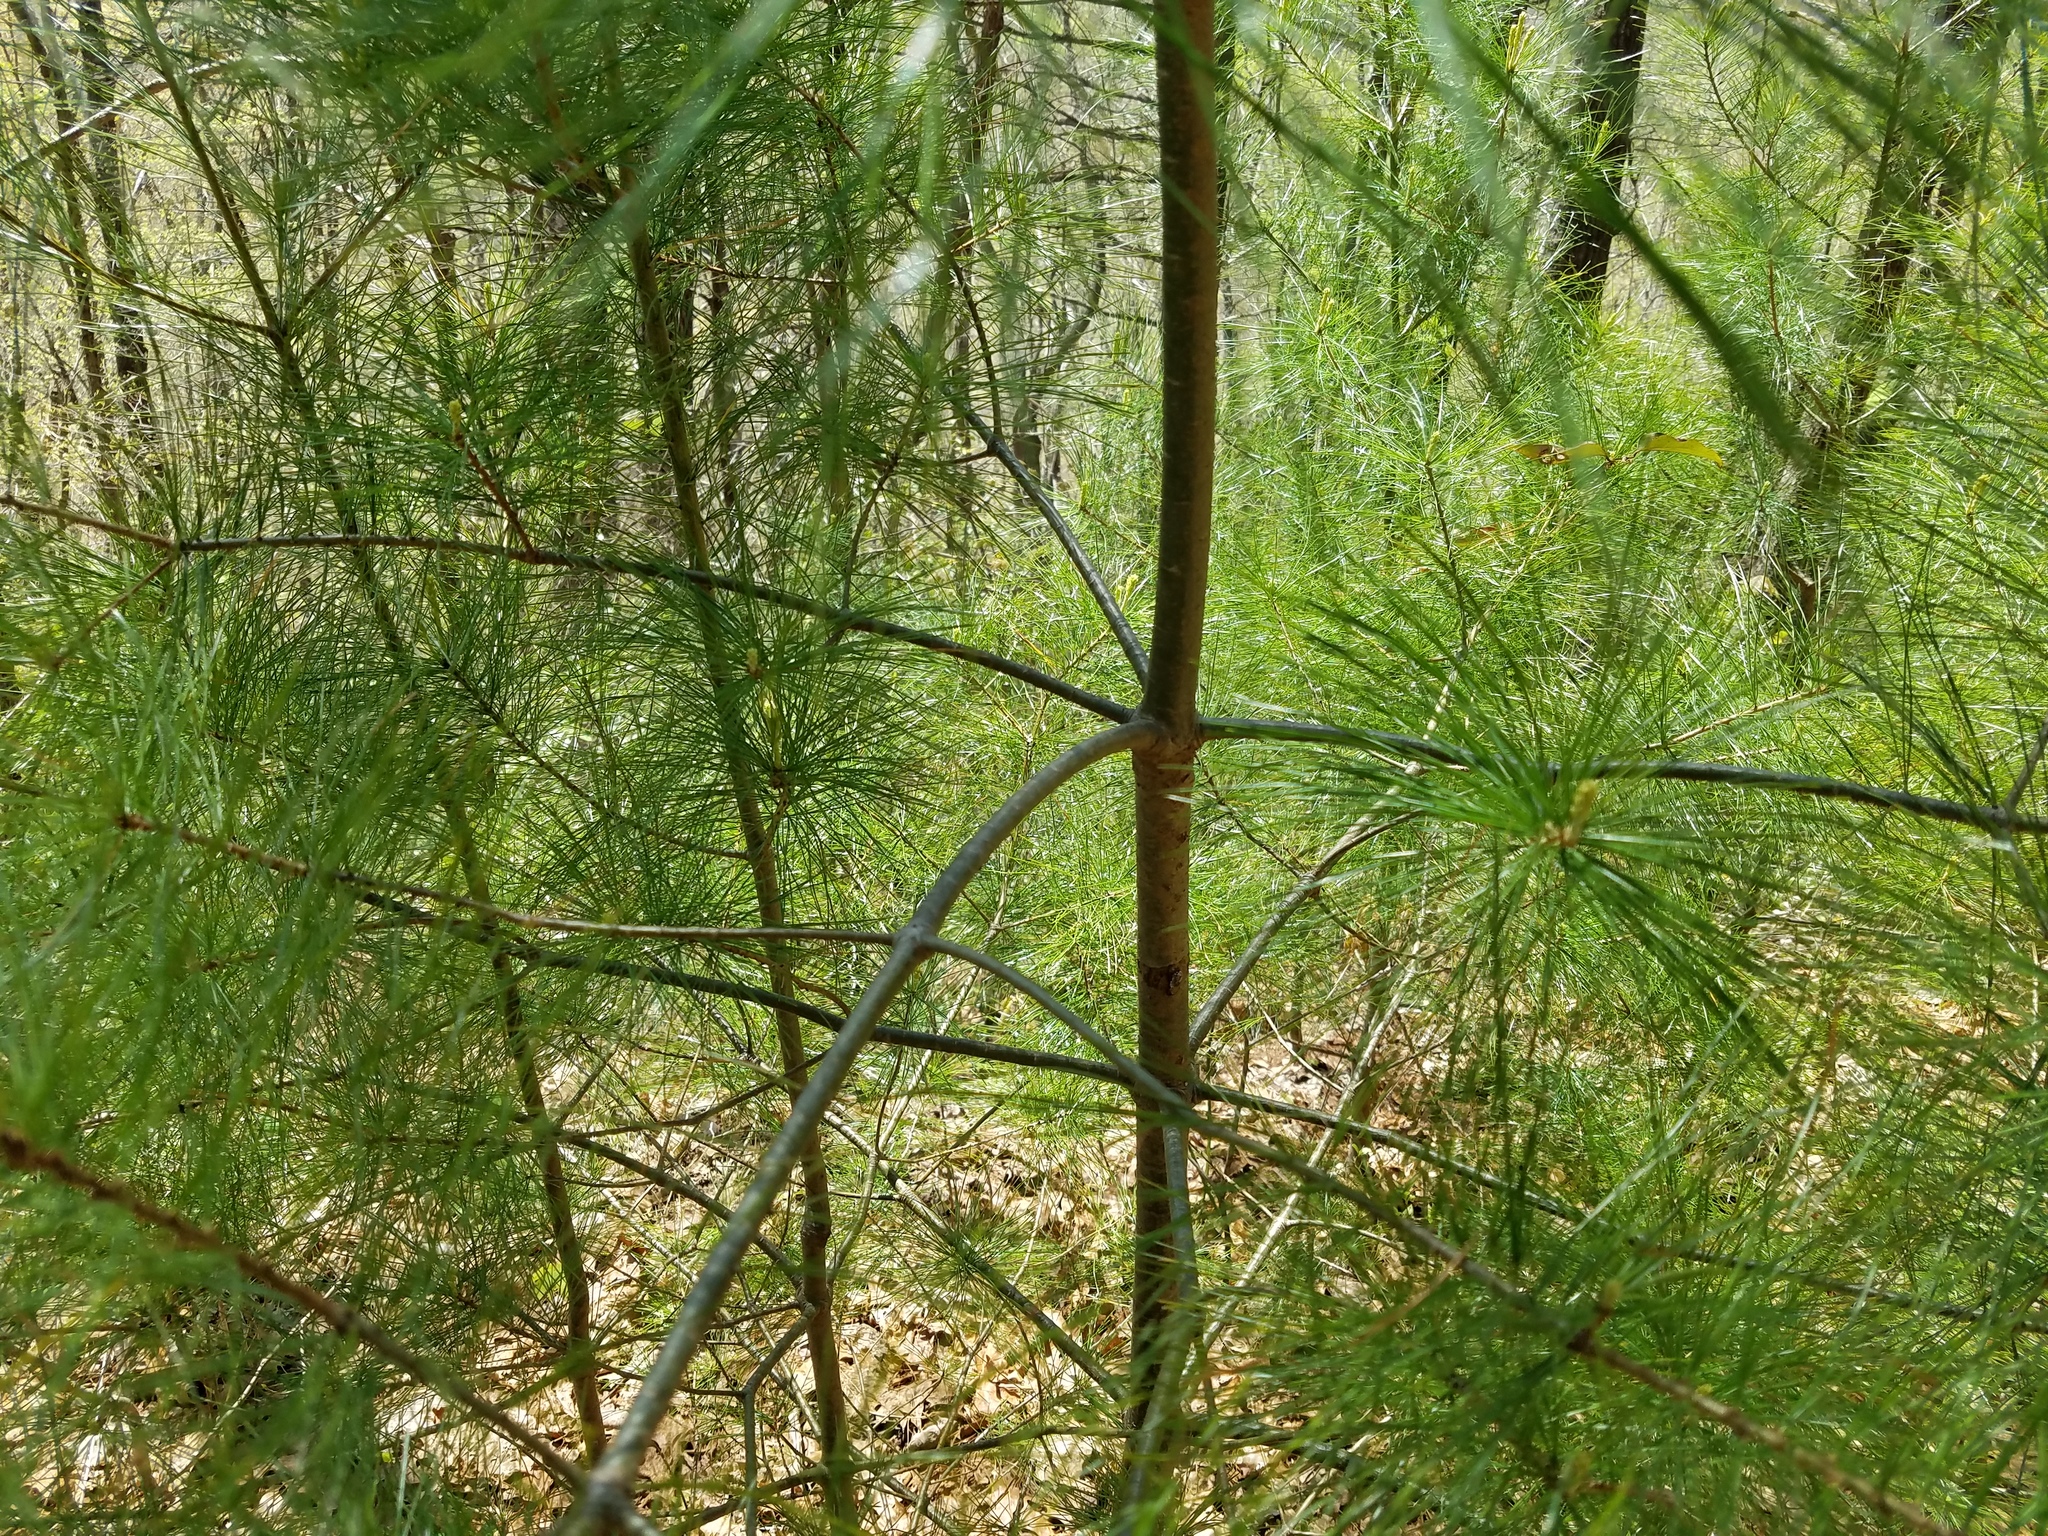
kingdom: Plantae
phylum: Tracheophyta
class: Pinopsida
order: Pinales
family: Pinaceae
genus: Pinus
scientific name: Pinus strobus
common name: Weymouth pine
